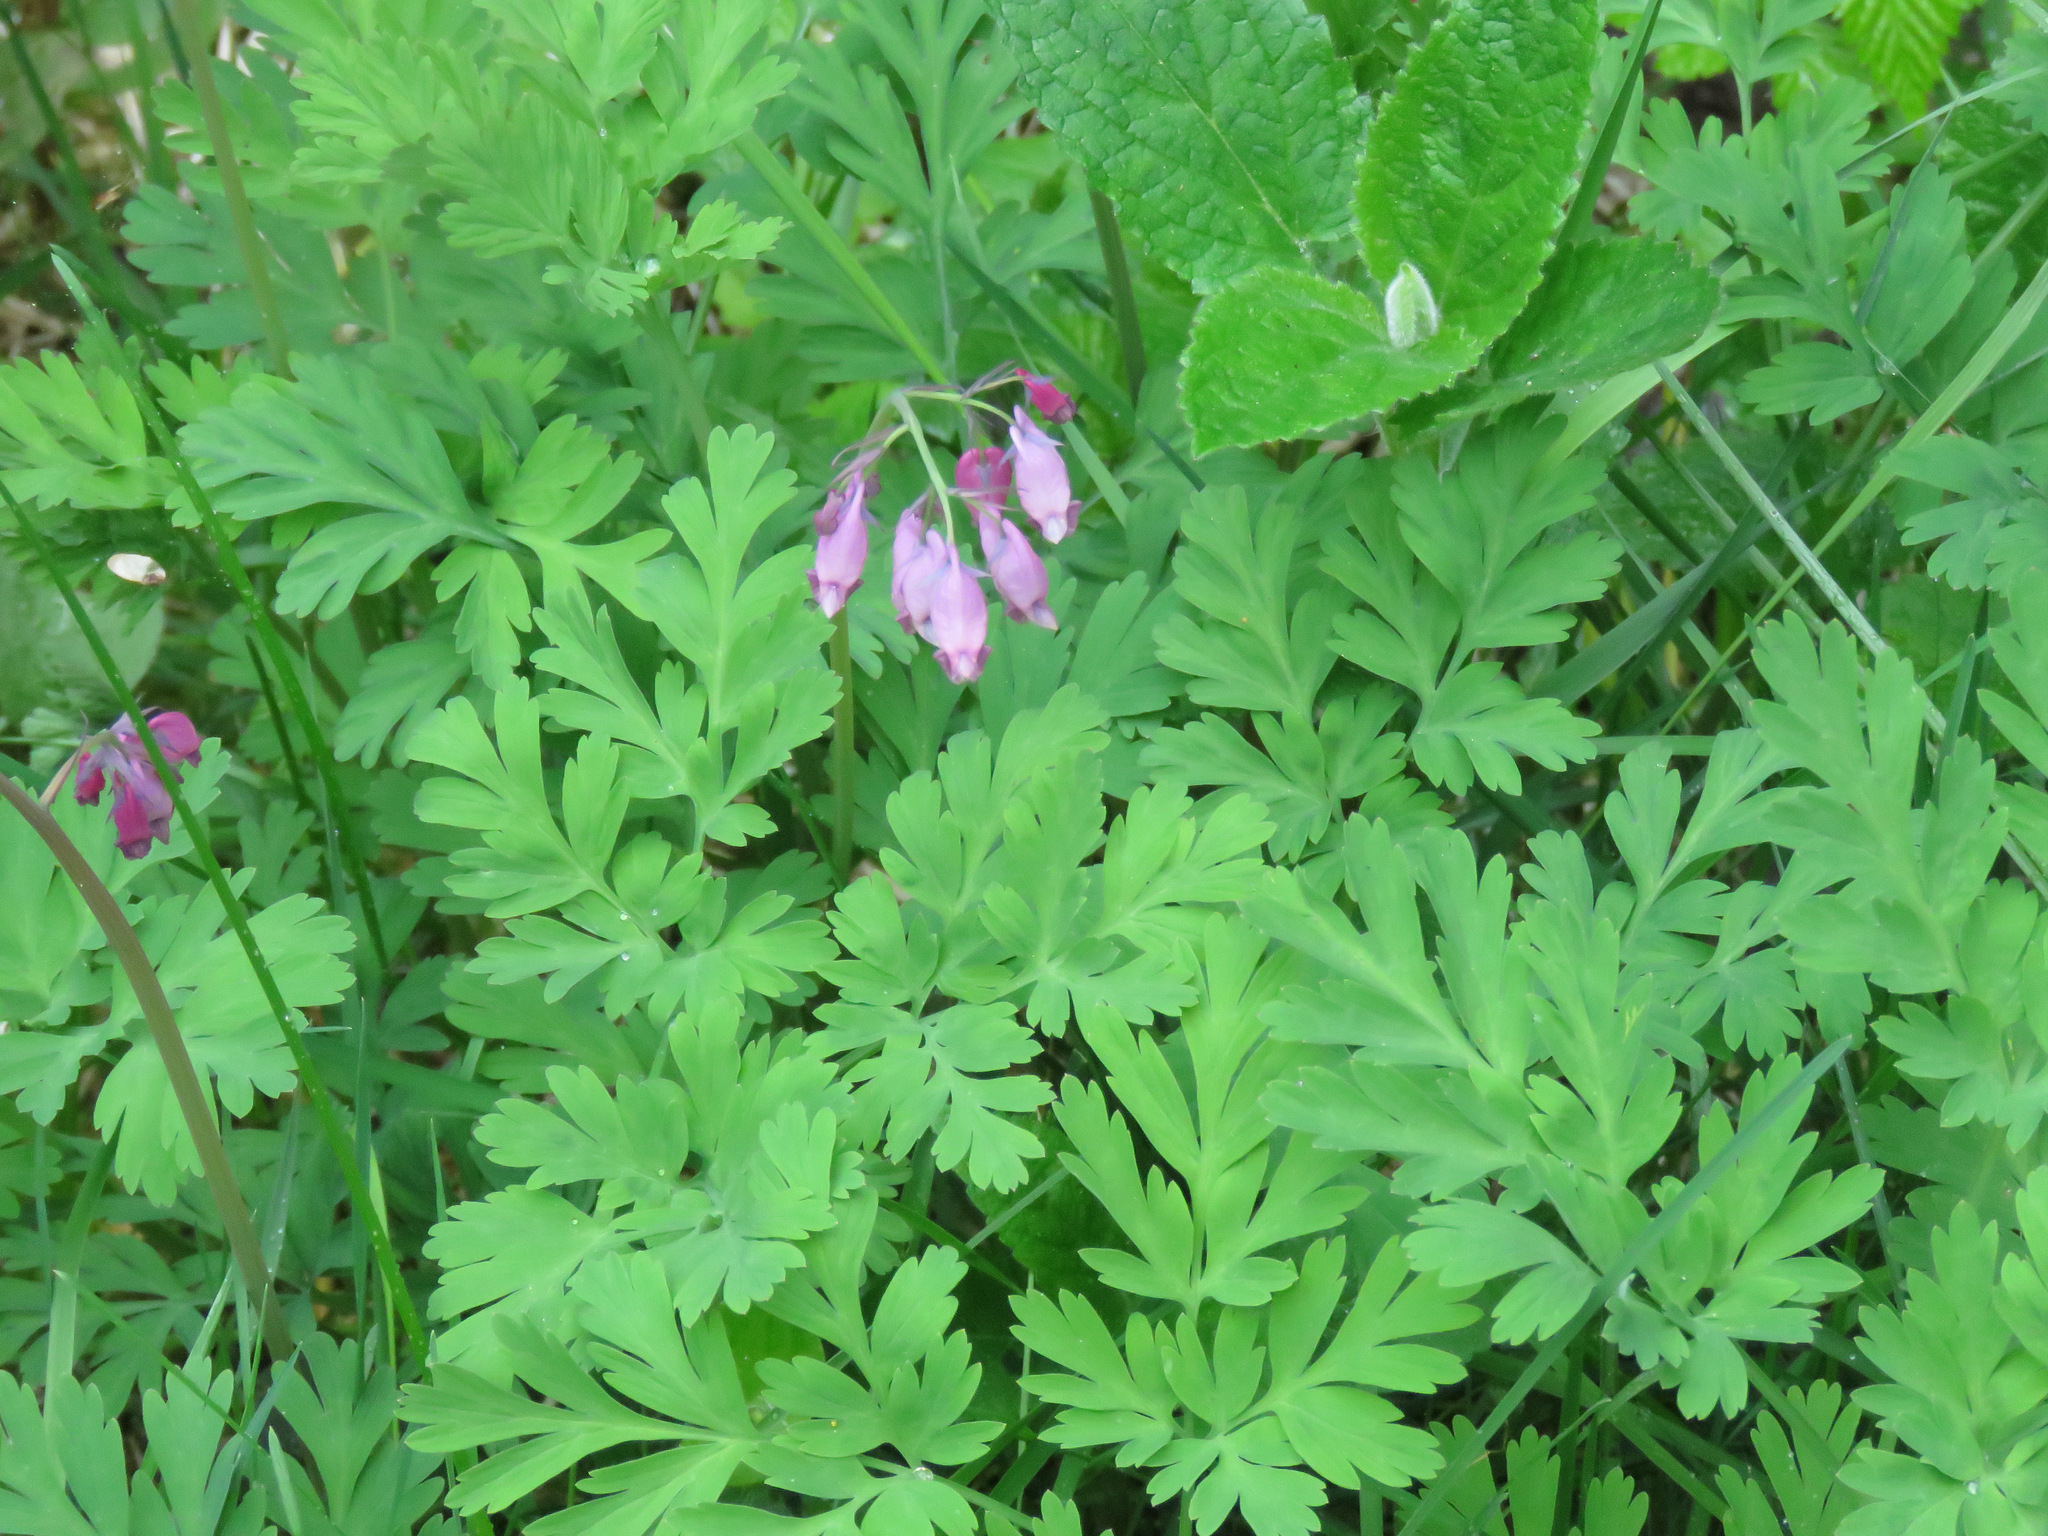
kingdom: Plantae
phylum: Tracheophyta
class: Magnoliopsida
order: Ranunculales
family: Papaveraceae
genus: Dicentra
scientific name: Dicentra formosa
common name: Bleeding-heart
